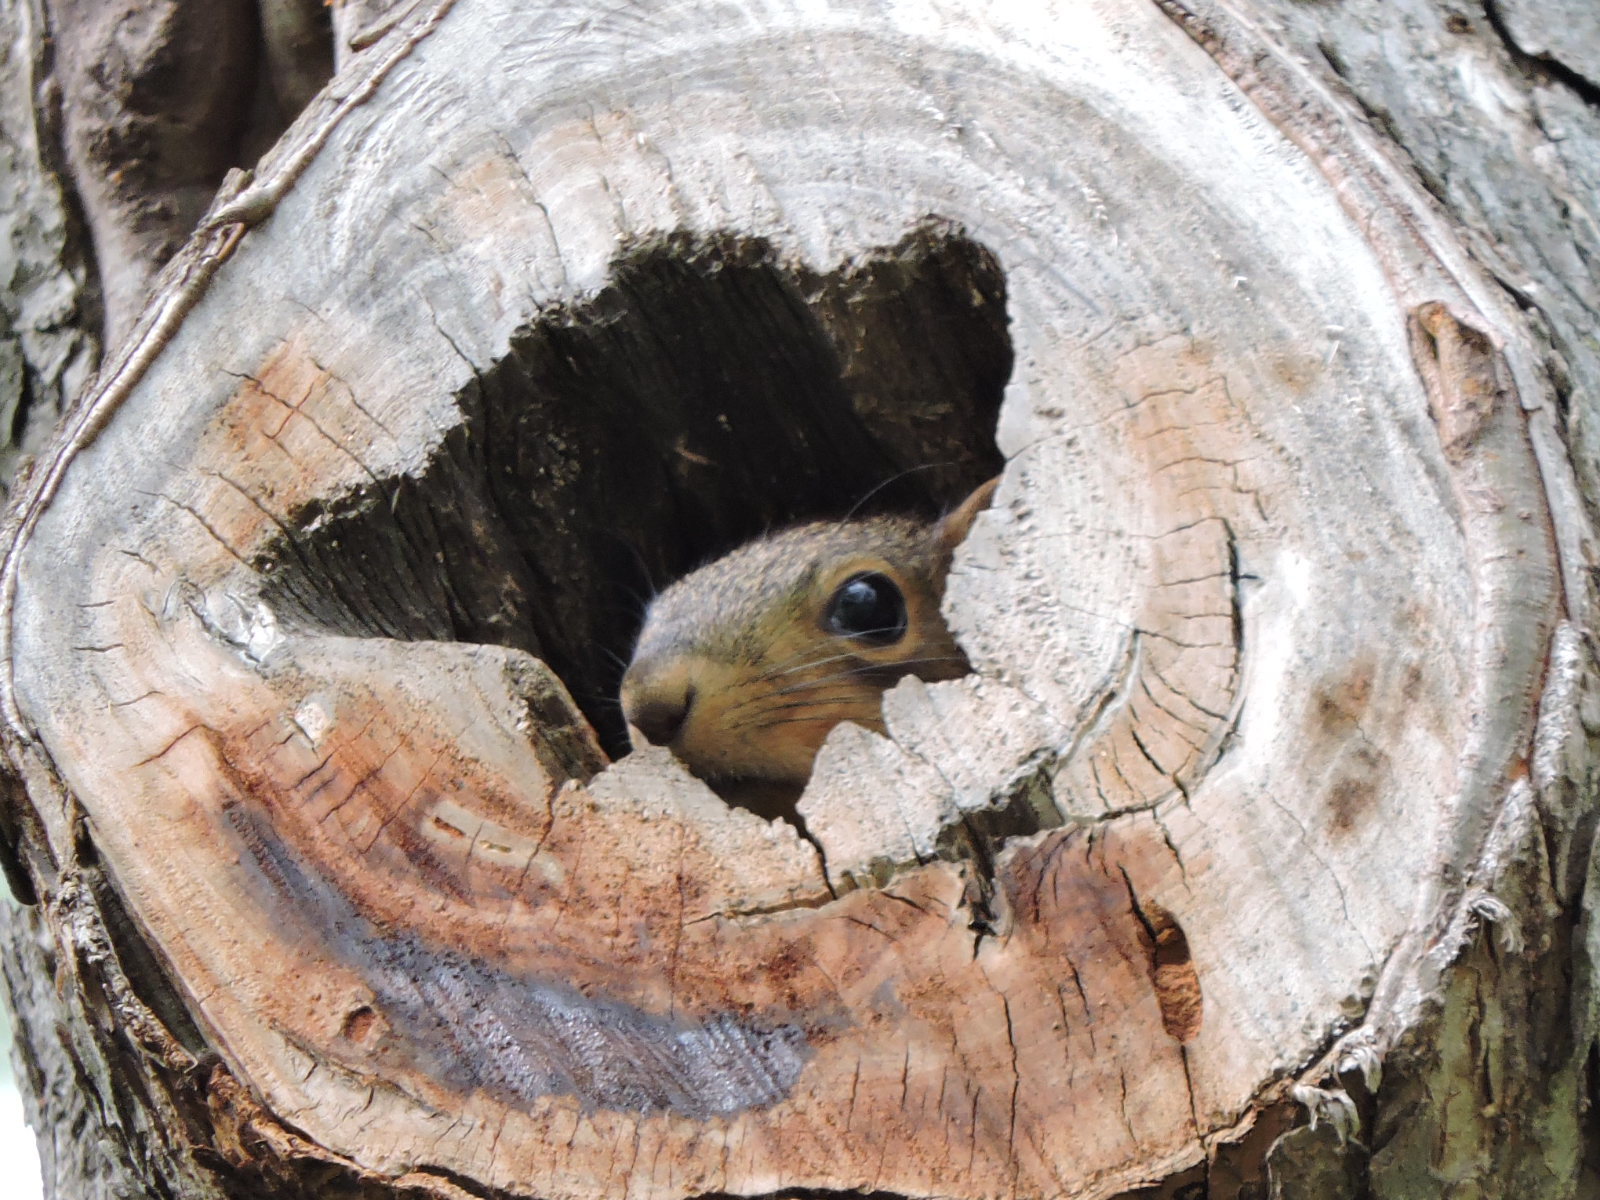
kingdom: Animalia
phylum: Chordata
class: Mammalia
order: Rodentia
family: Sciuridae
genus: Sciurus
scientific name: Sciurus niger
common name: Fox squirrel
